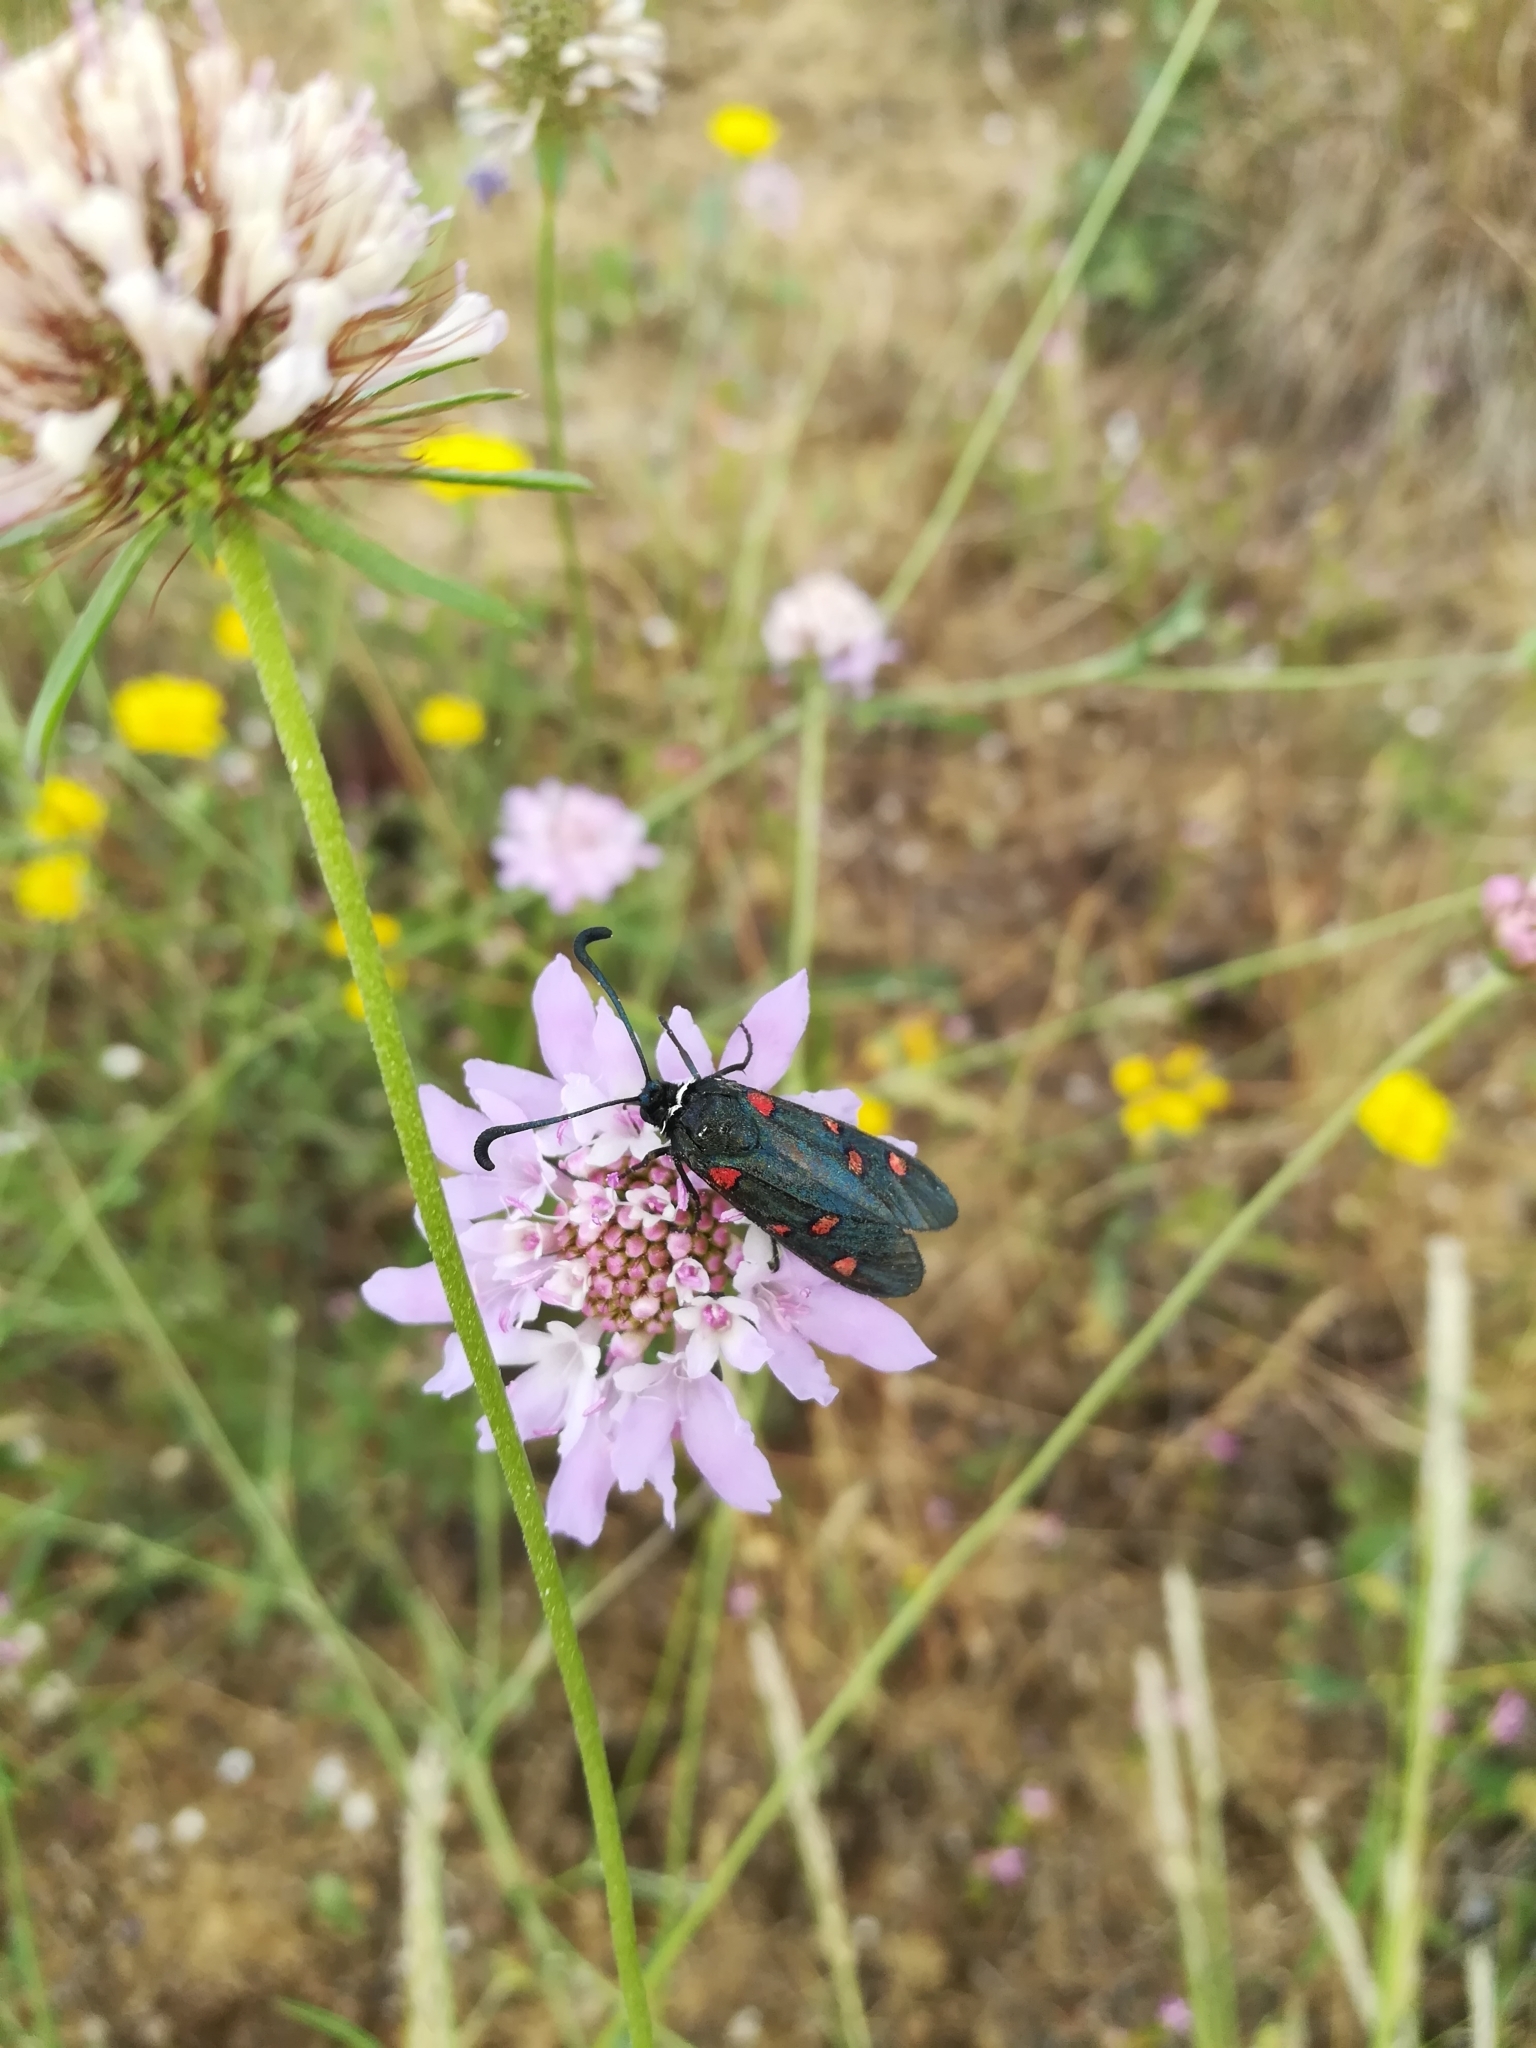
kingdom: Animalia
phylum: Arthropoda
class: Insecta
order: Lepidoptera
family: Zygaenidae
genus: Zygaena
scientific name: Zygaena lavandulae
